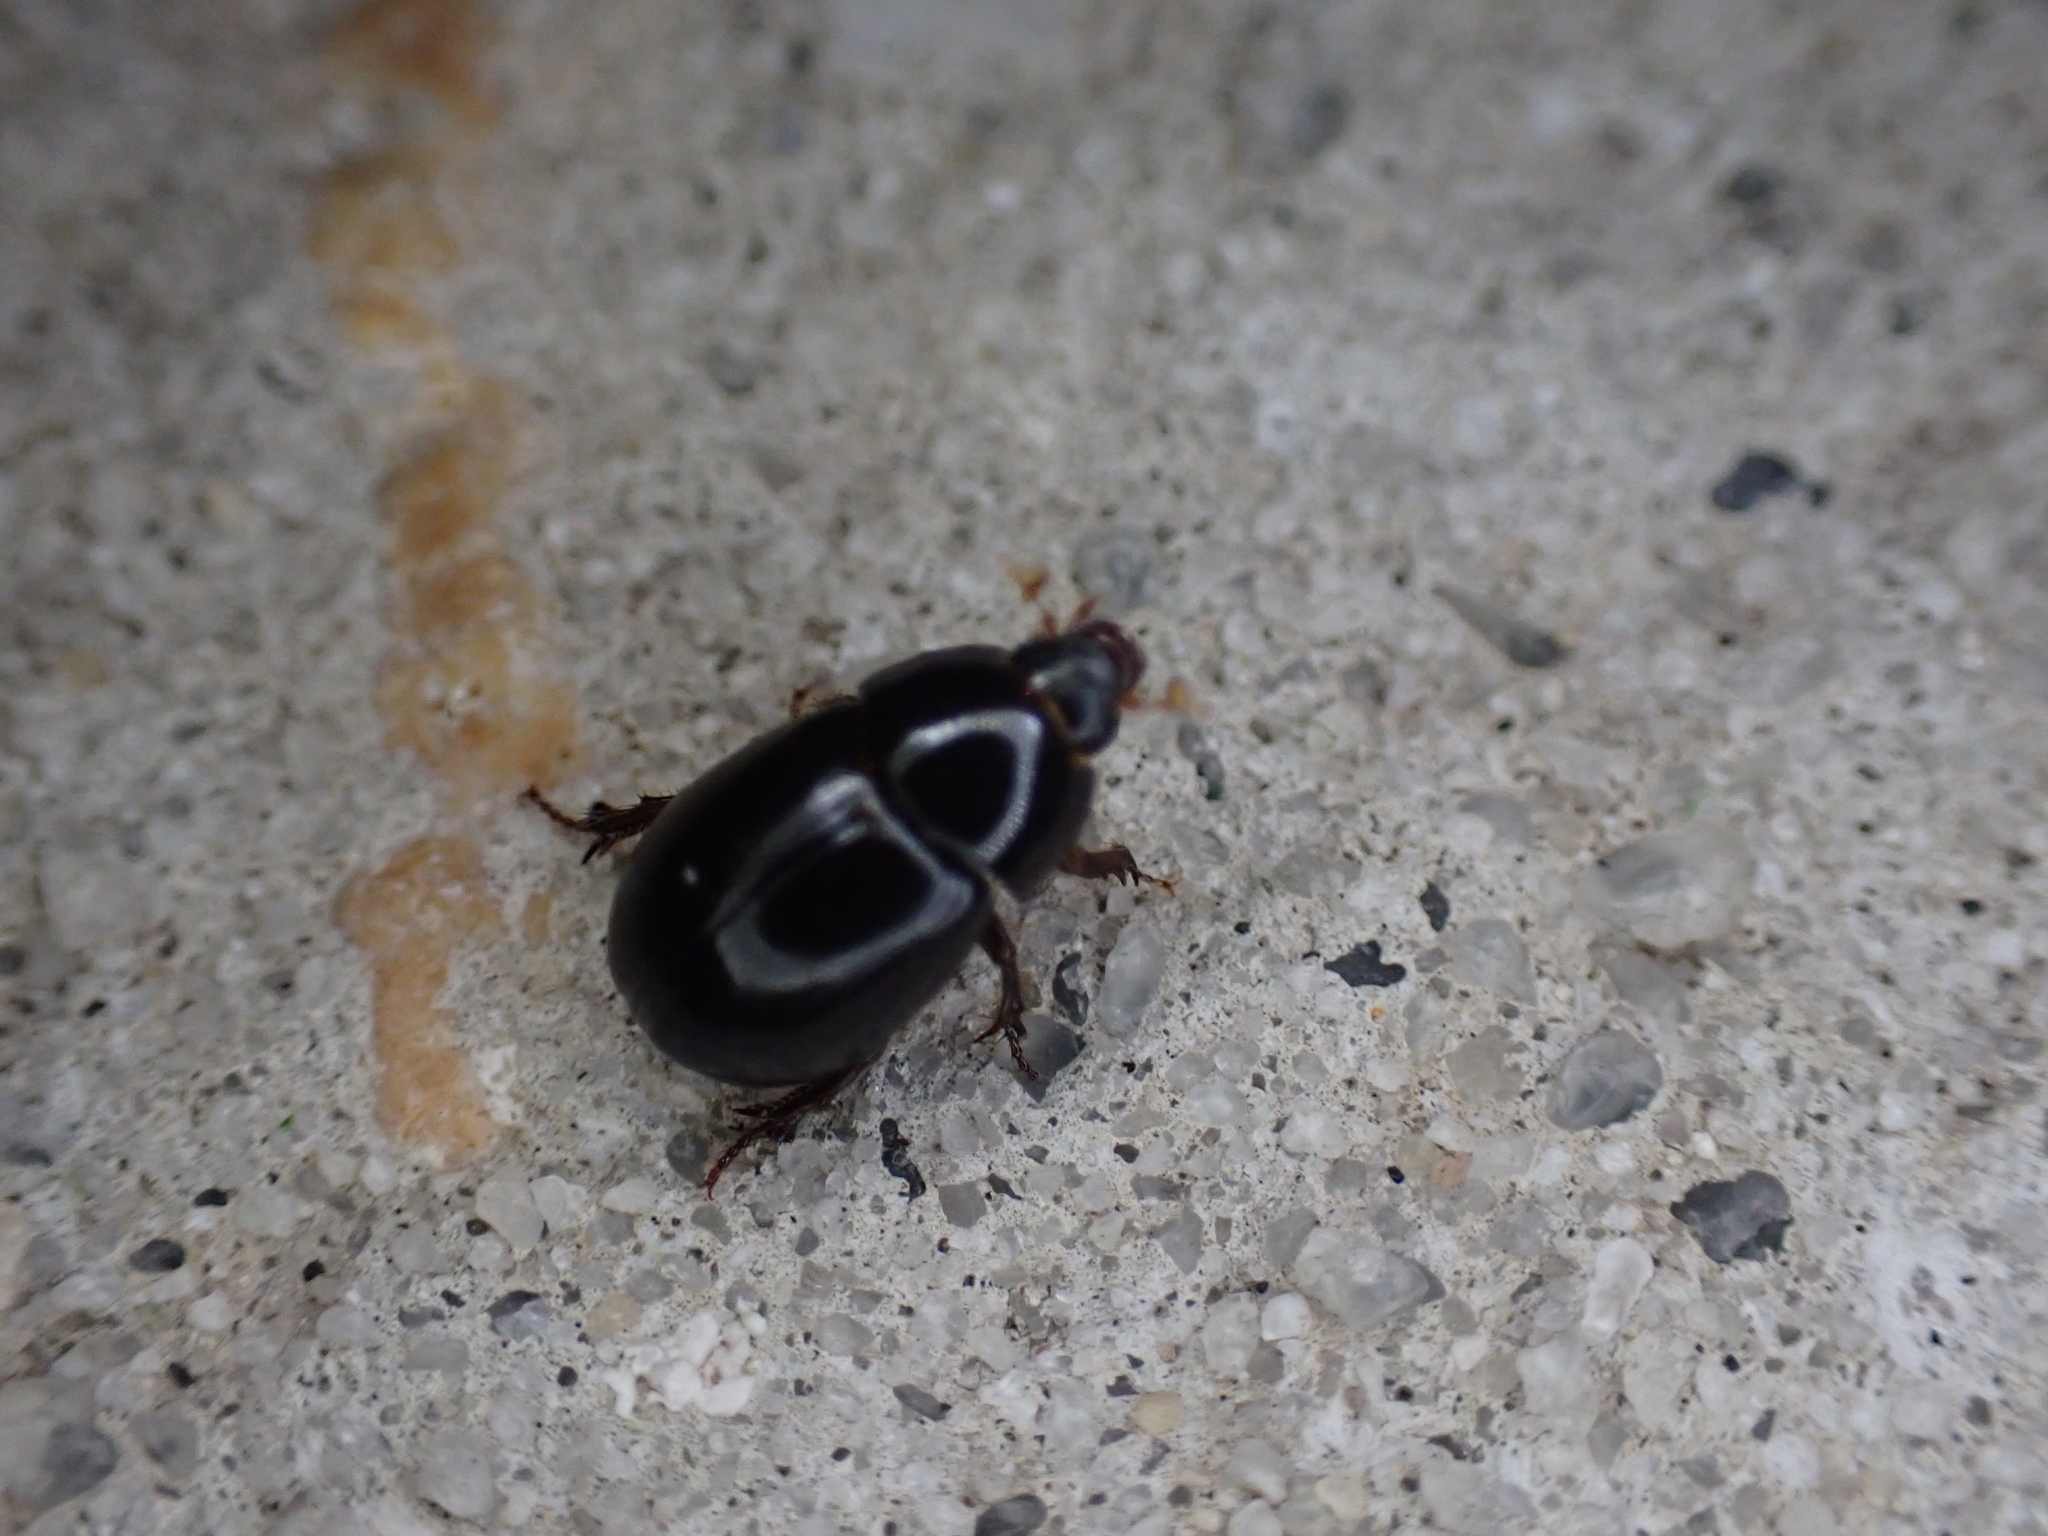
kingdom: Animalia
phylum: Arthropoda
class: Insecta
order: Coleoptera
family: Hybosoridae
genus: Hybosorus
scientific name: Hybosorus illigeri
